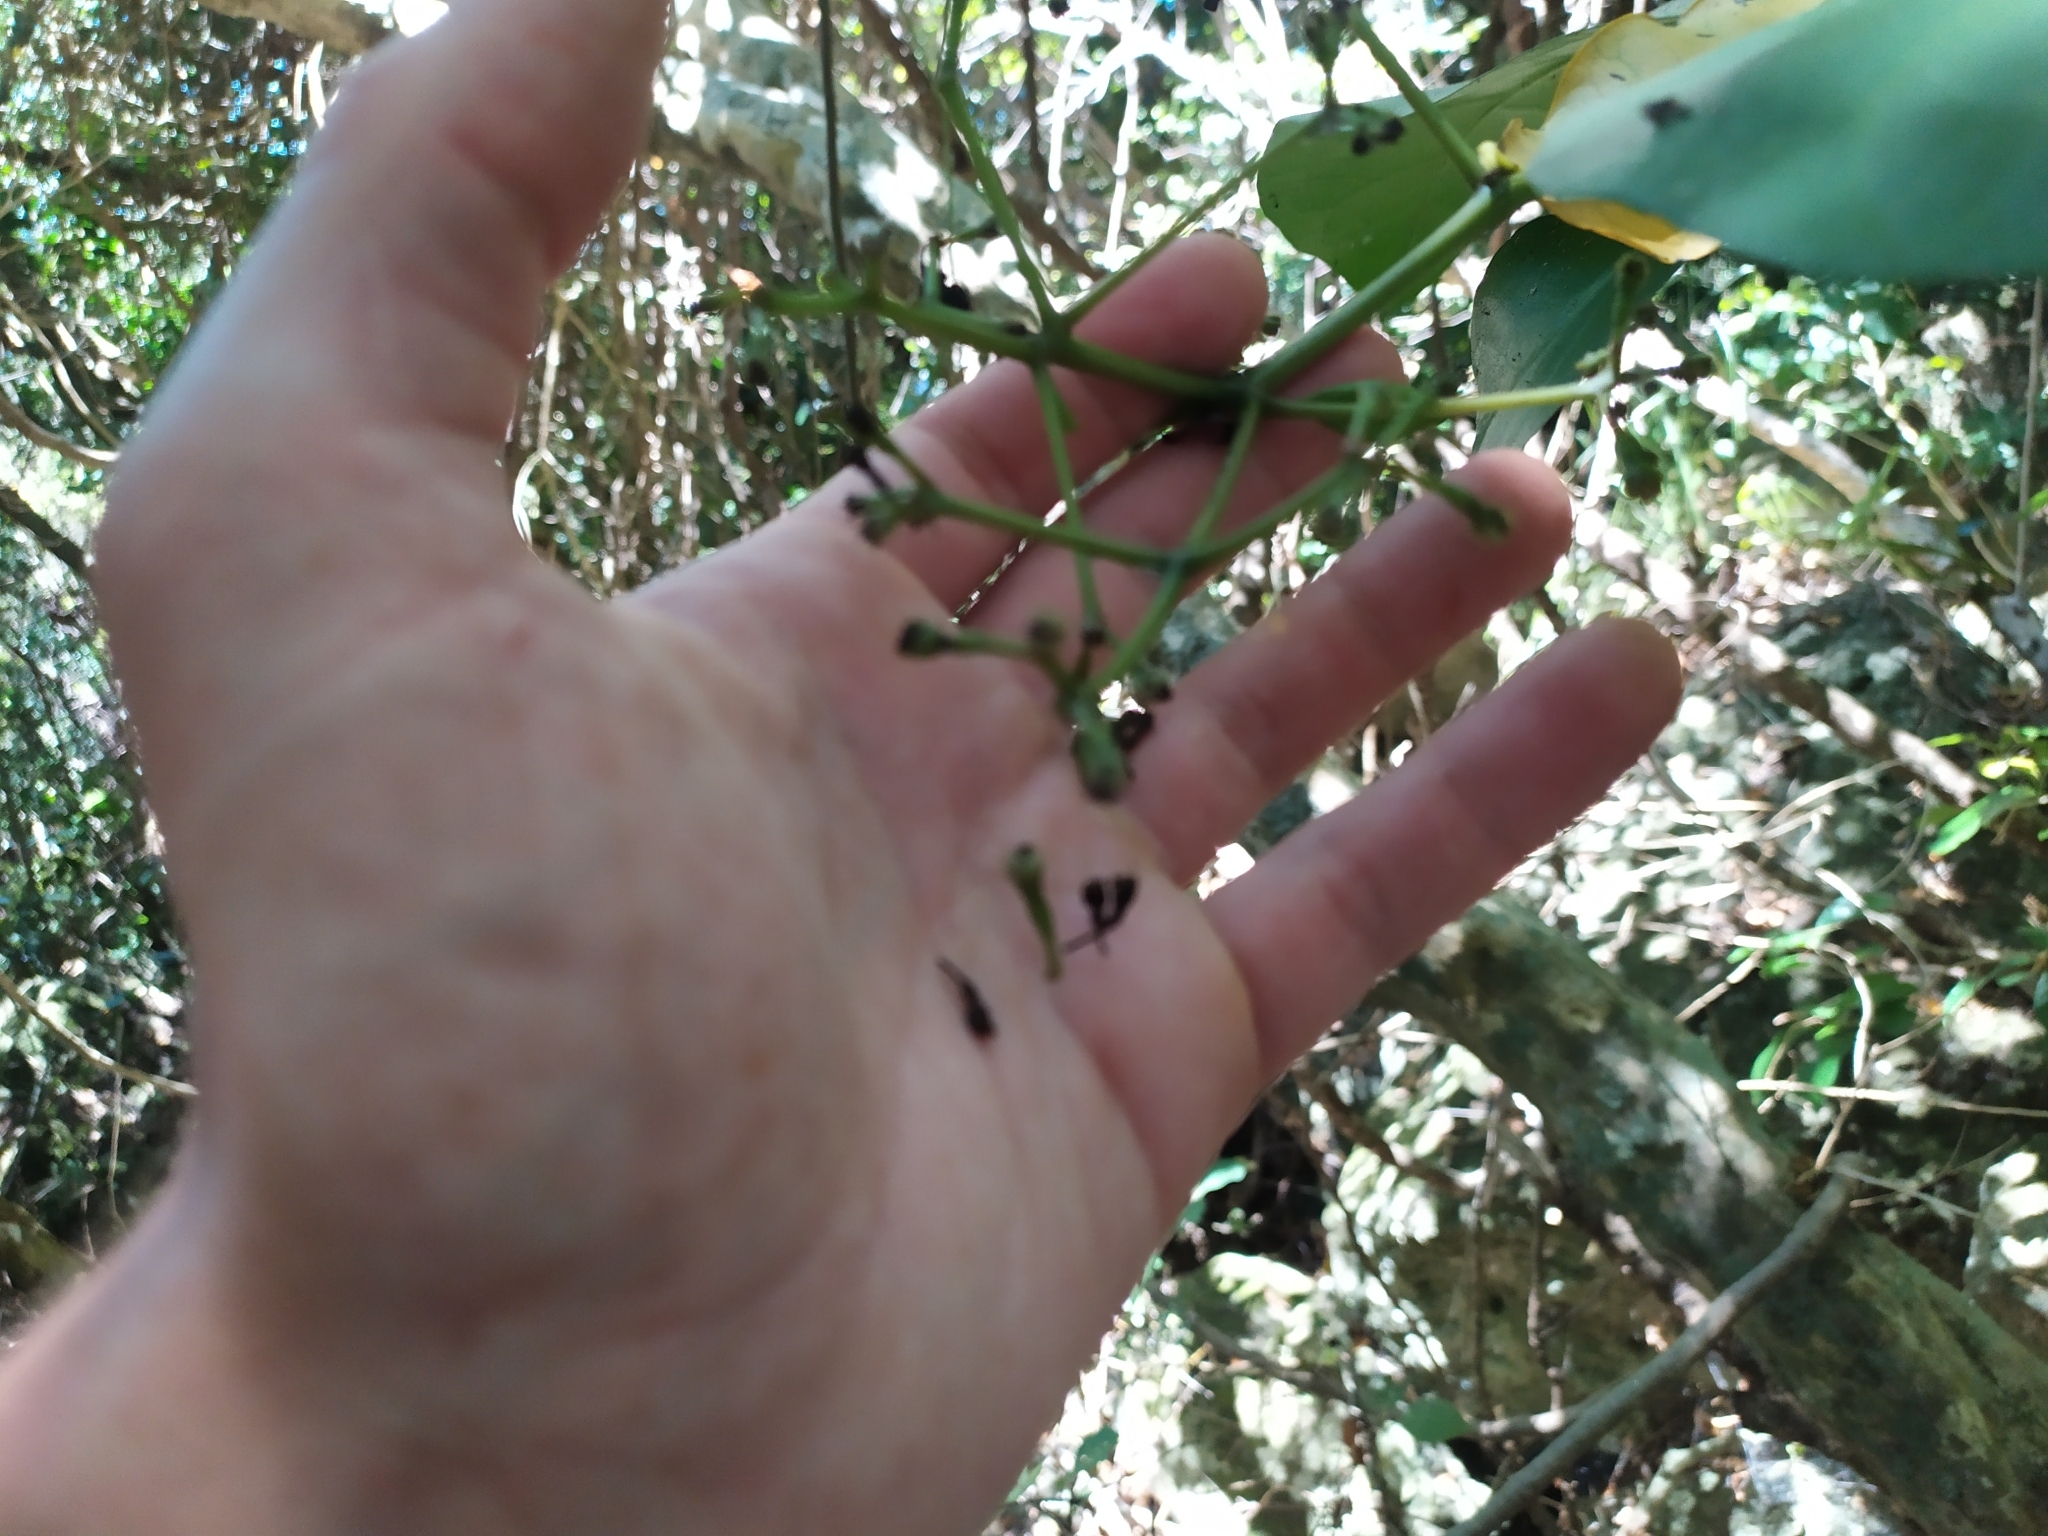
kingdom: Plantae
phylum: Tracheophyta
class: Magnoliopsida
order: Caryophyllales
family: Nyctaginaceae
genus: Ceodes
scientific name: Ceodes brunoniana
